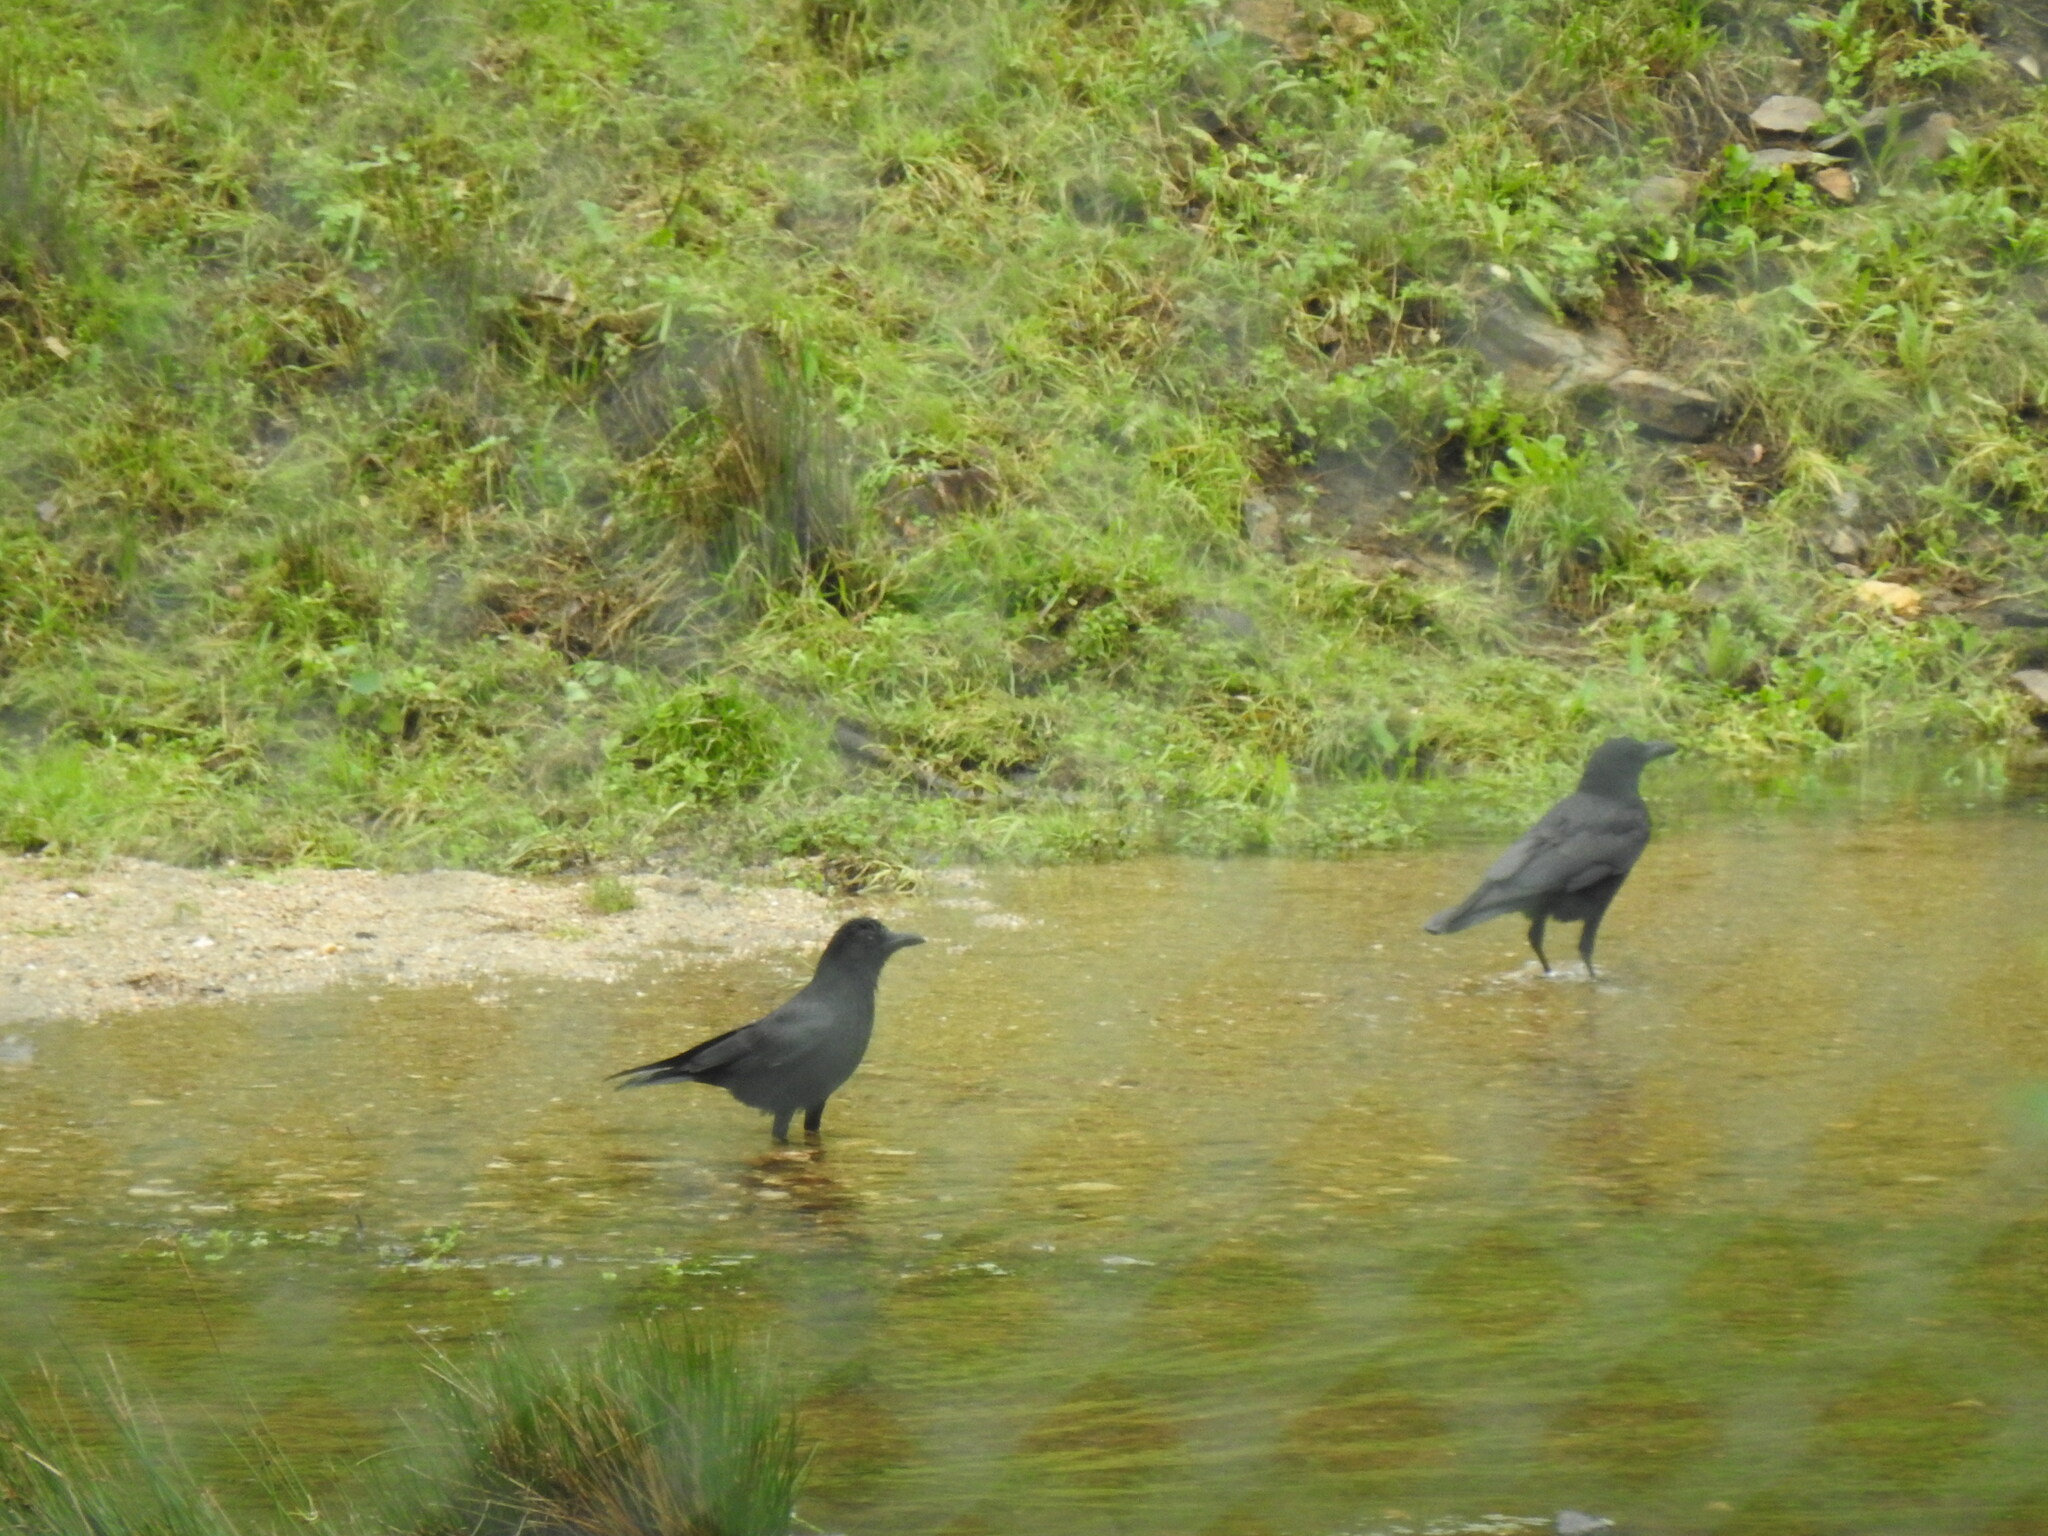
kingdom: Animalia
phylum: Chordata
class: Aves
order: Passeriformes
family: Corvidae
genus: Corvus
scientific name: Corvus corone
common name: Carrion crow
